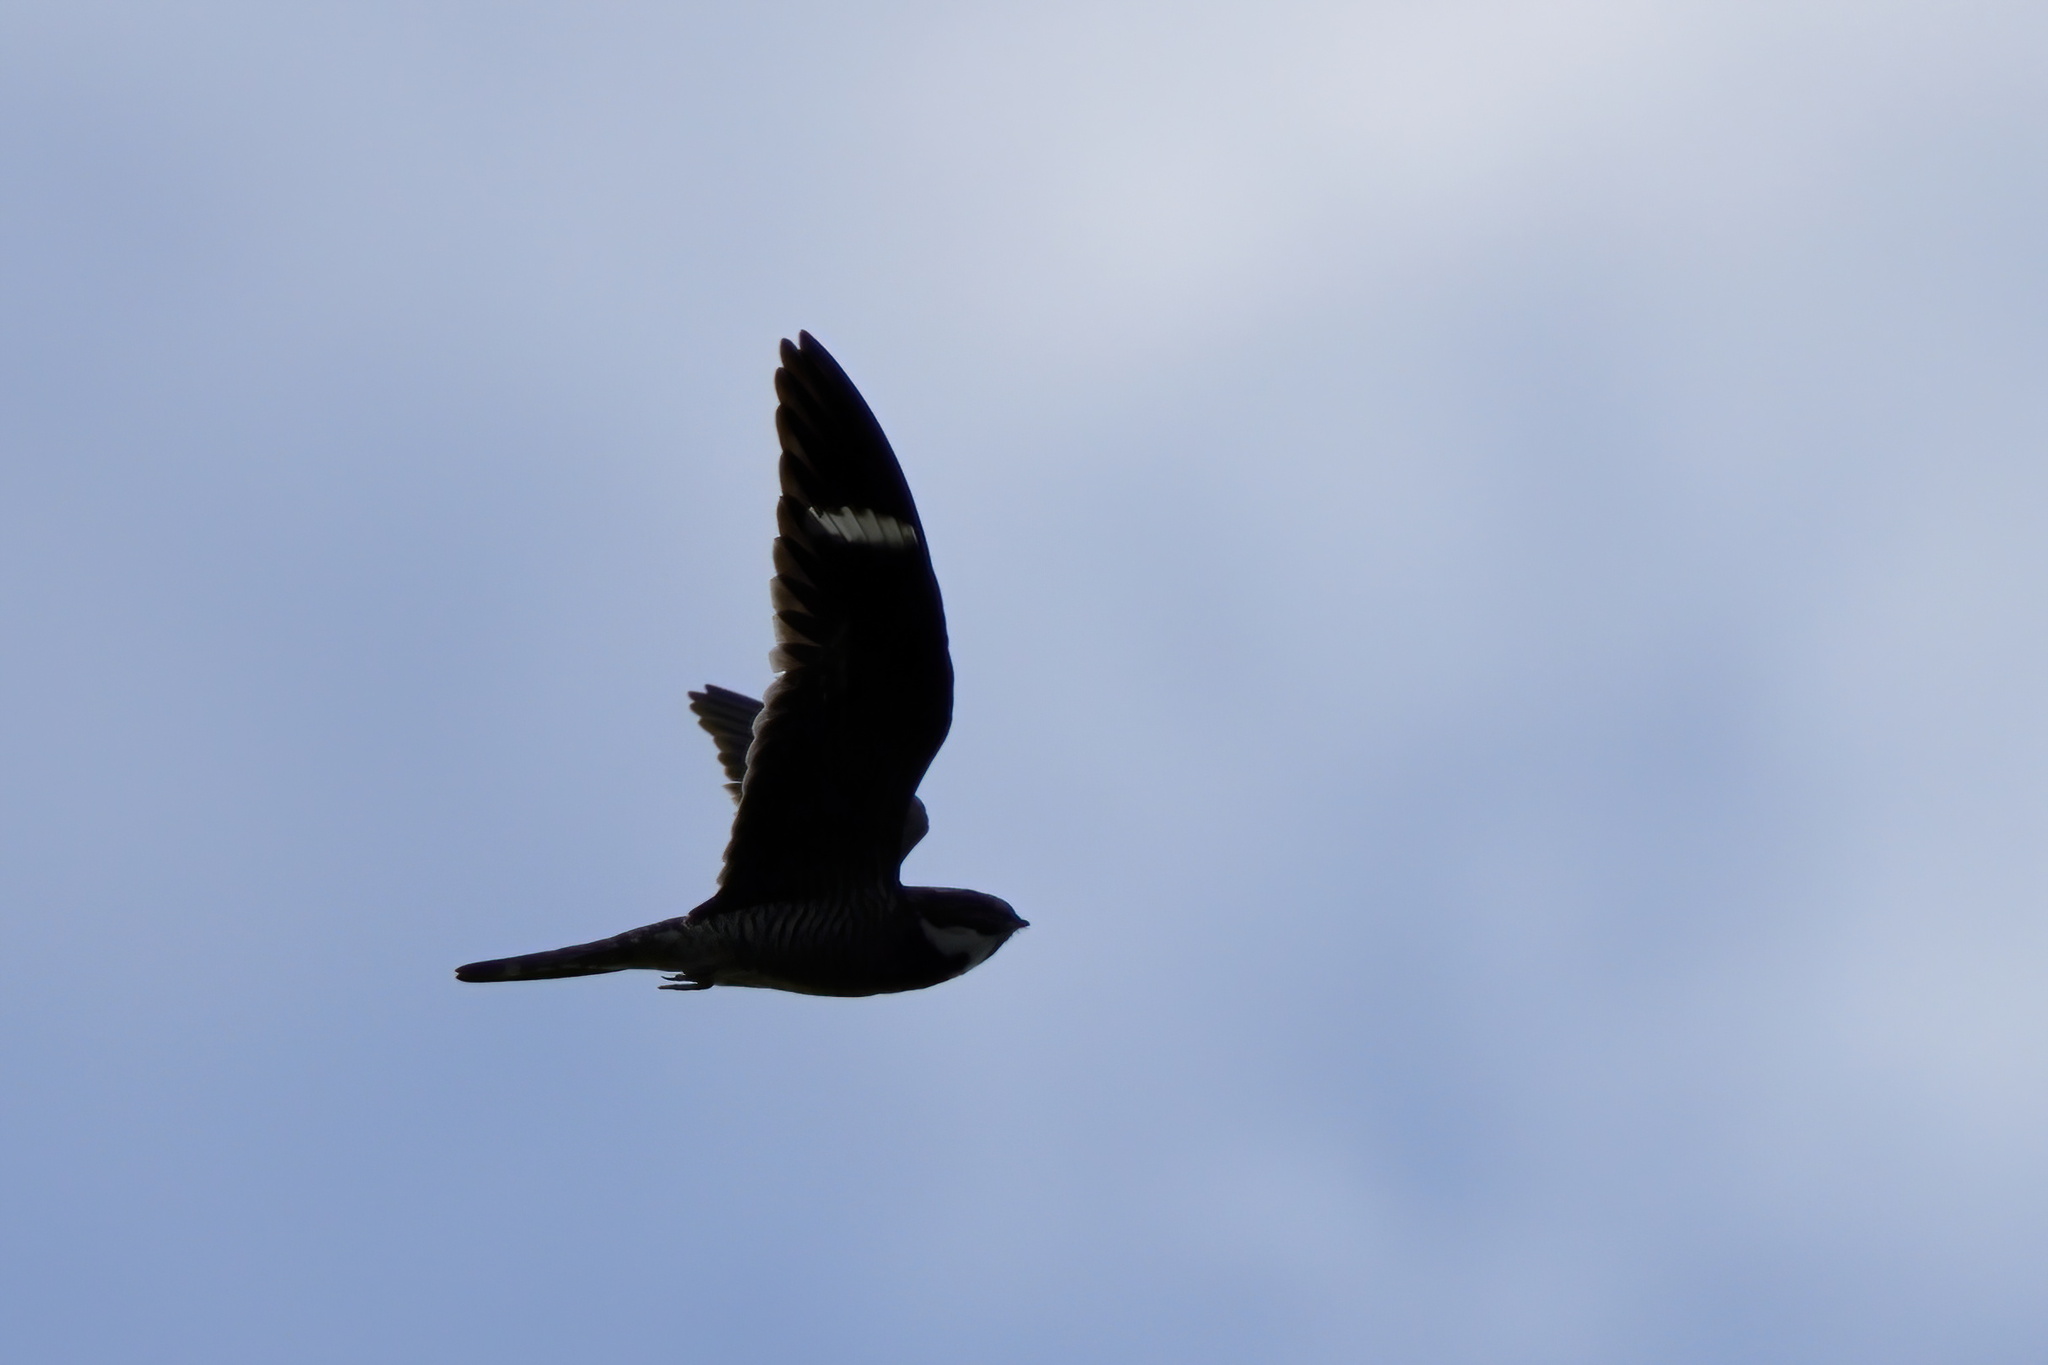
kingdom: Animalia
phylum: Chordata
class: Aves
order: Caprimulgiformes
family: Caprimulgidae
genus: Chordeiles
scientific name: Chordeiles minor
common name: Common nighthawk
